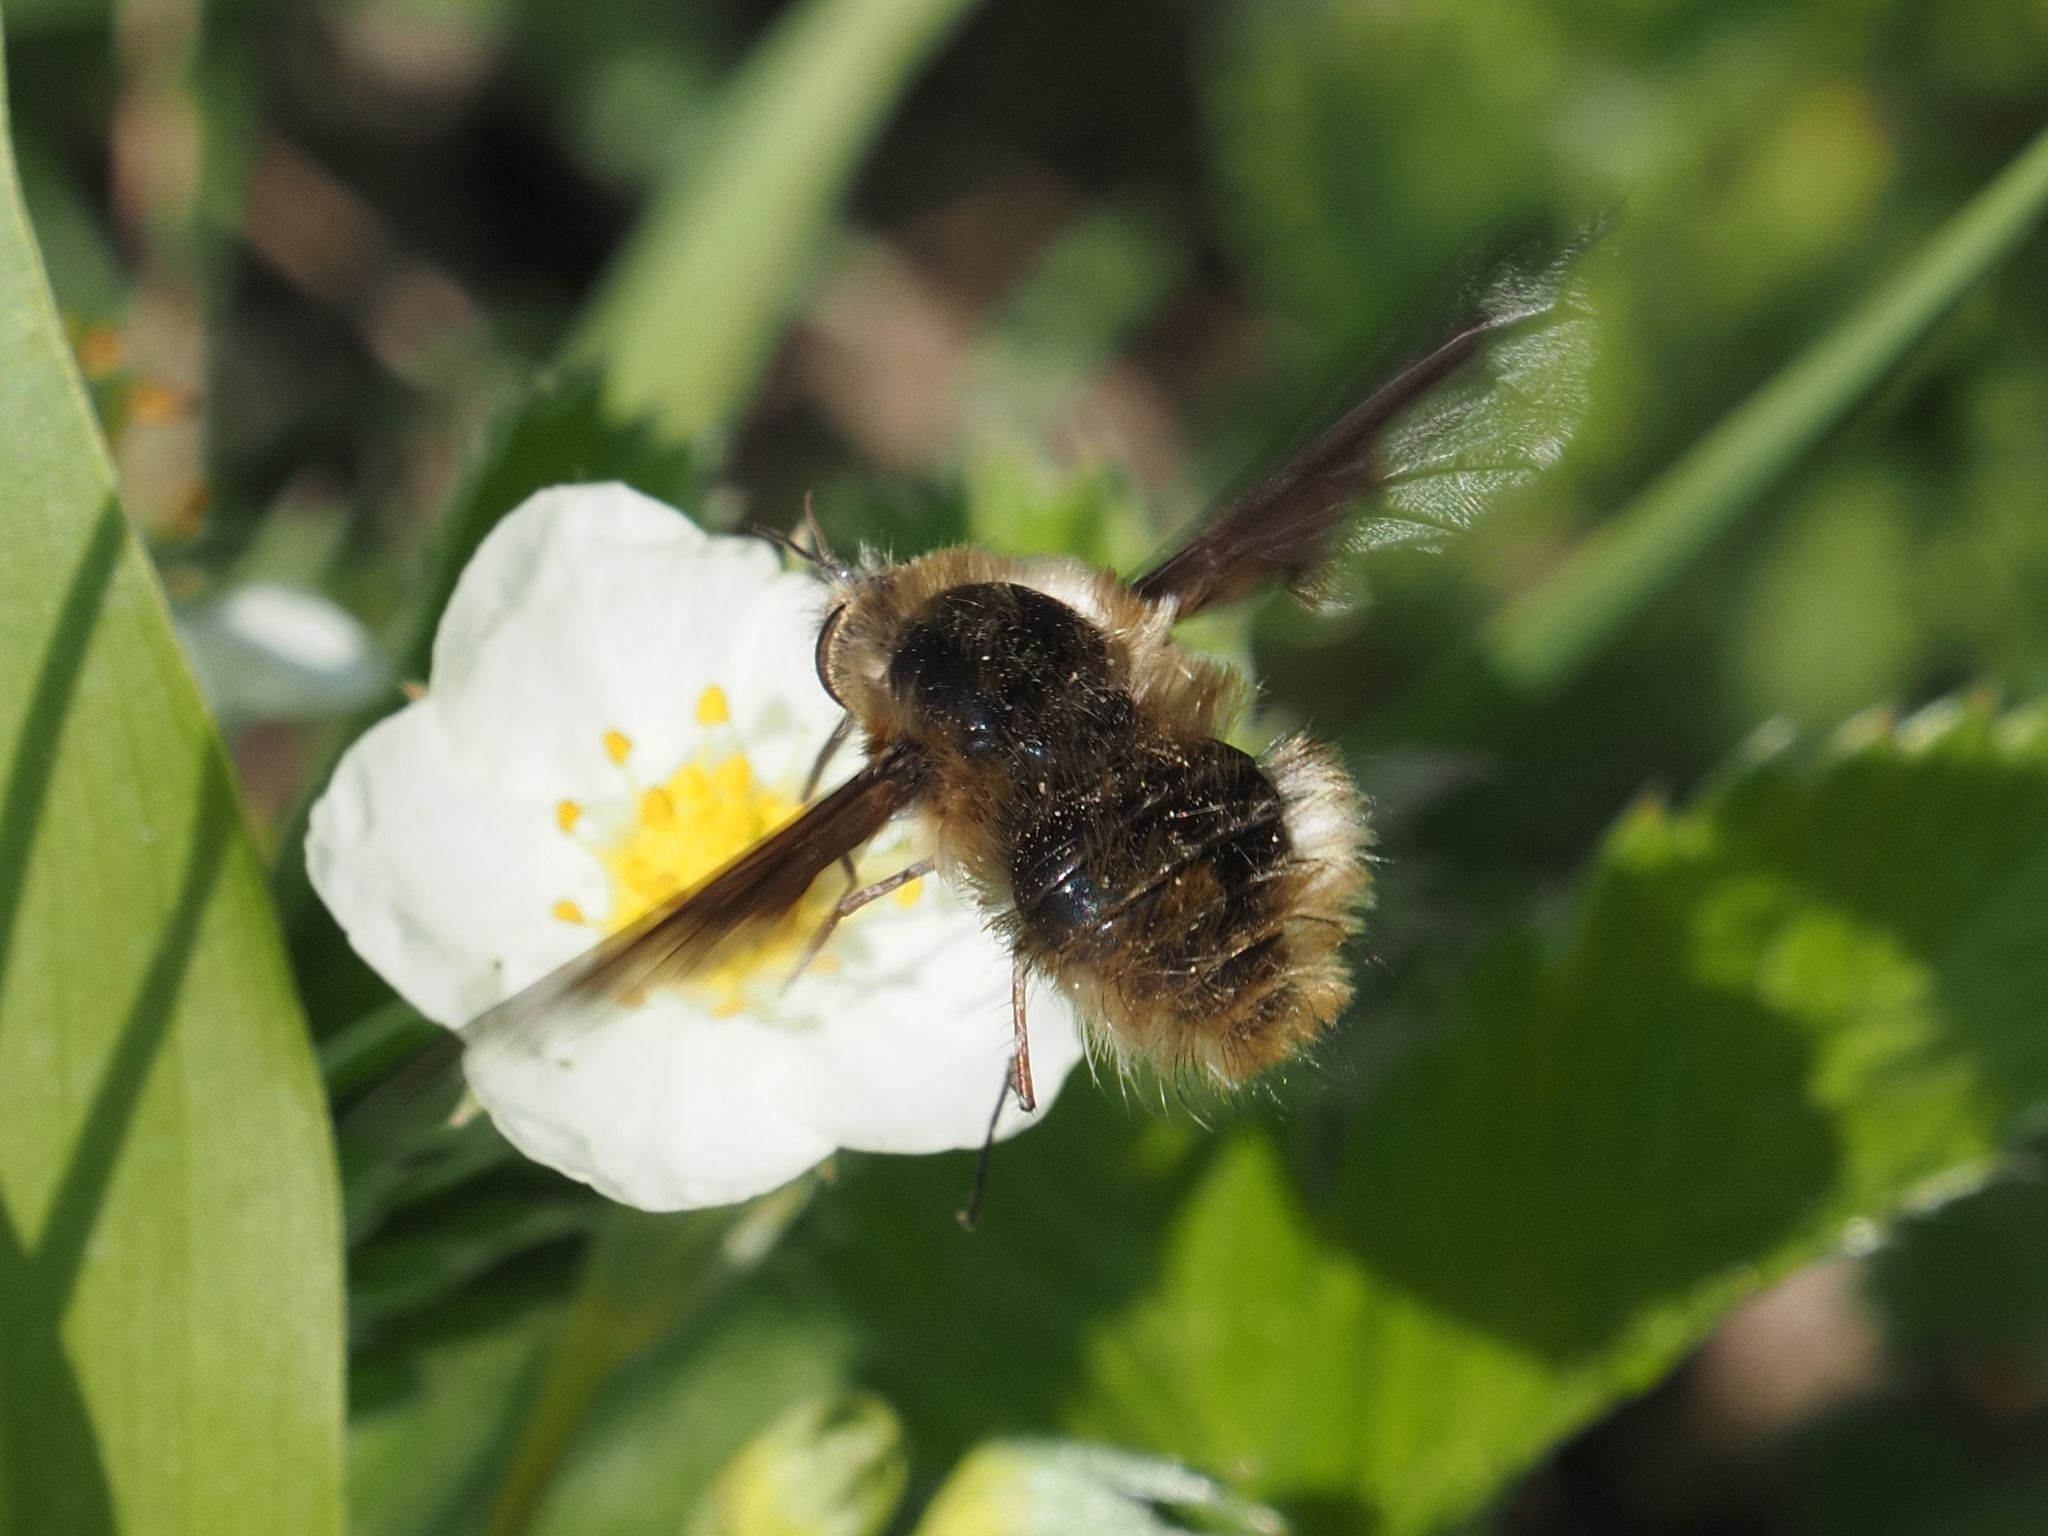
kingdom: Animalia
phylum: Arthropoda
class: Insecta
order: Diptera
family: Bombyliidae
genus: Bombylius
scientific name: Bombylius major
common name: Bee fly
